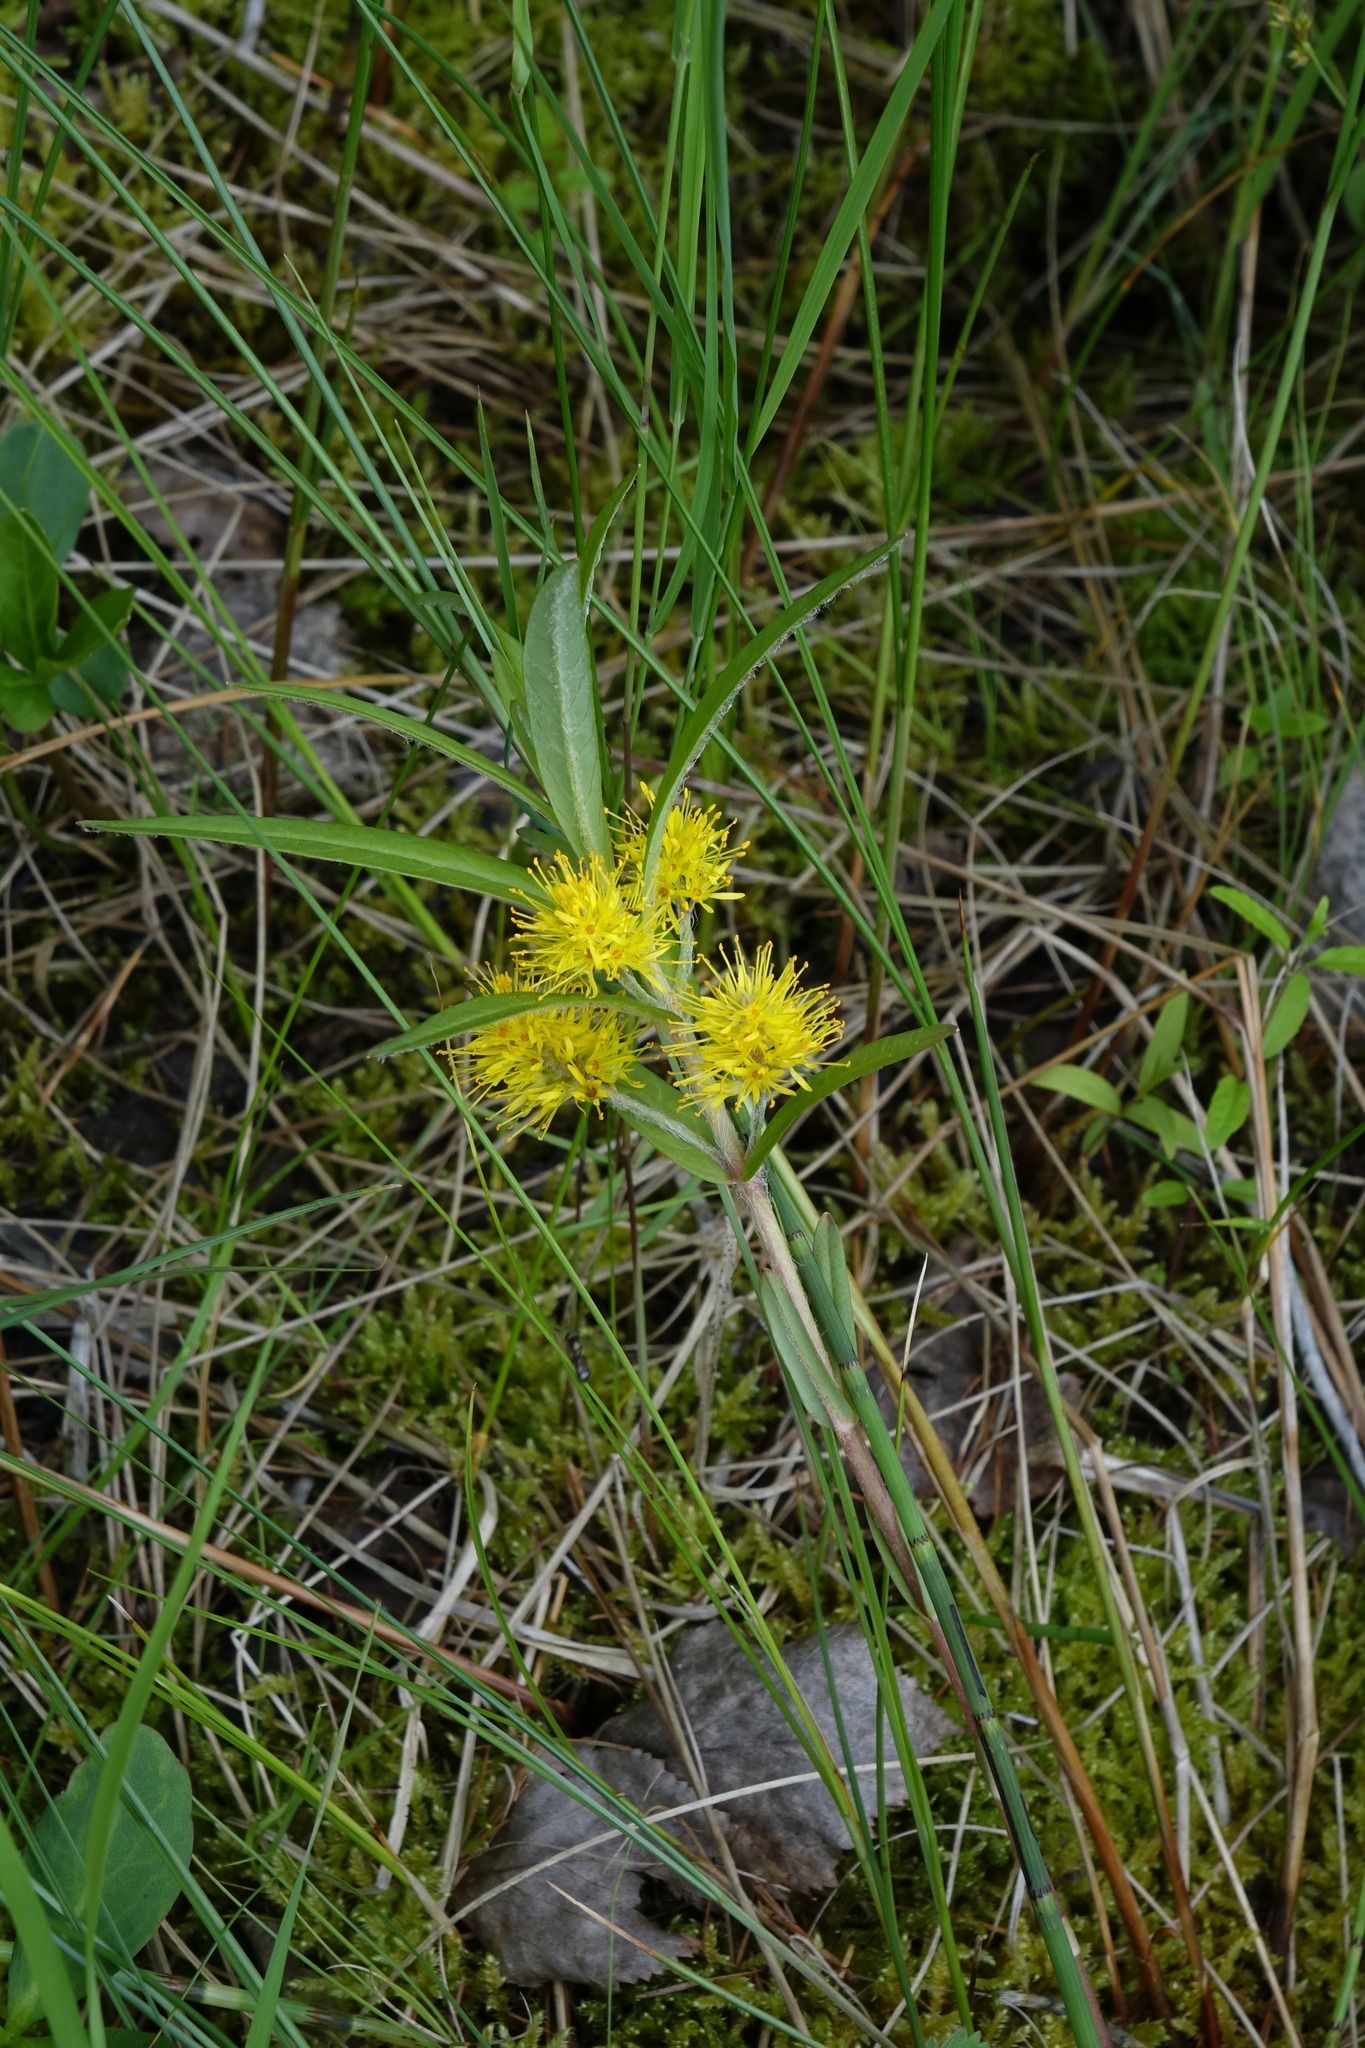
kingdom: Plantae
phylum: Tracheophyta
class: Magnoliopsida
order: Ericales
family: Primulaceae
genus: Lysimachia
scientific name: Lysimachia thyrsiflora
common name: Tufted loosestrife
